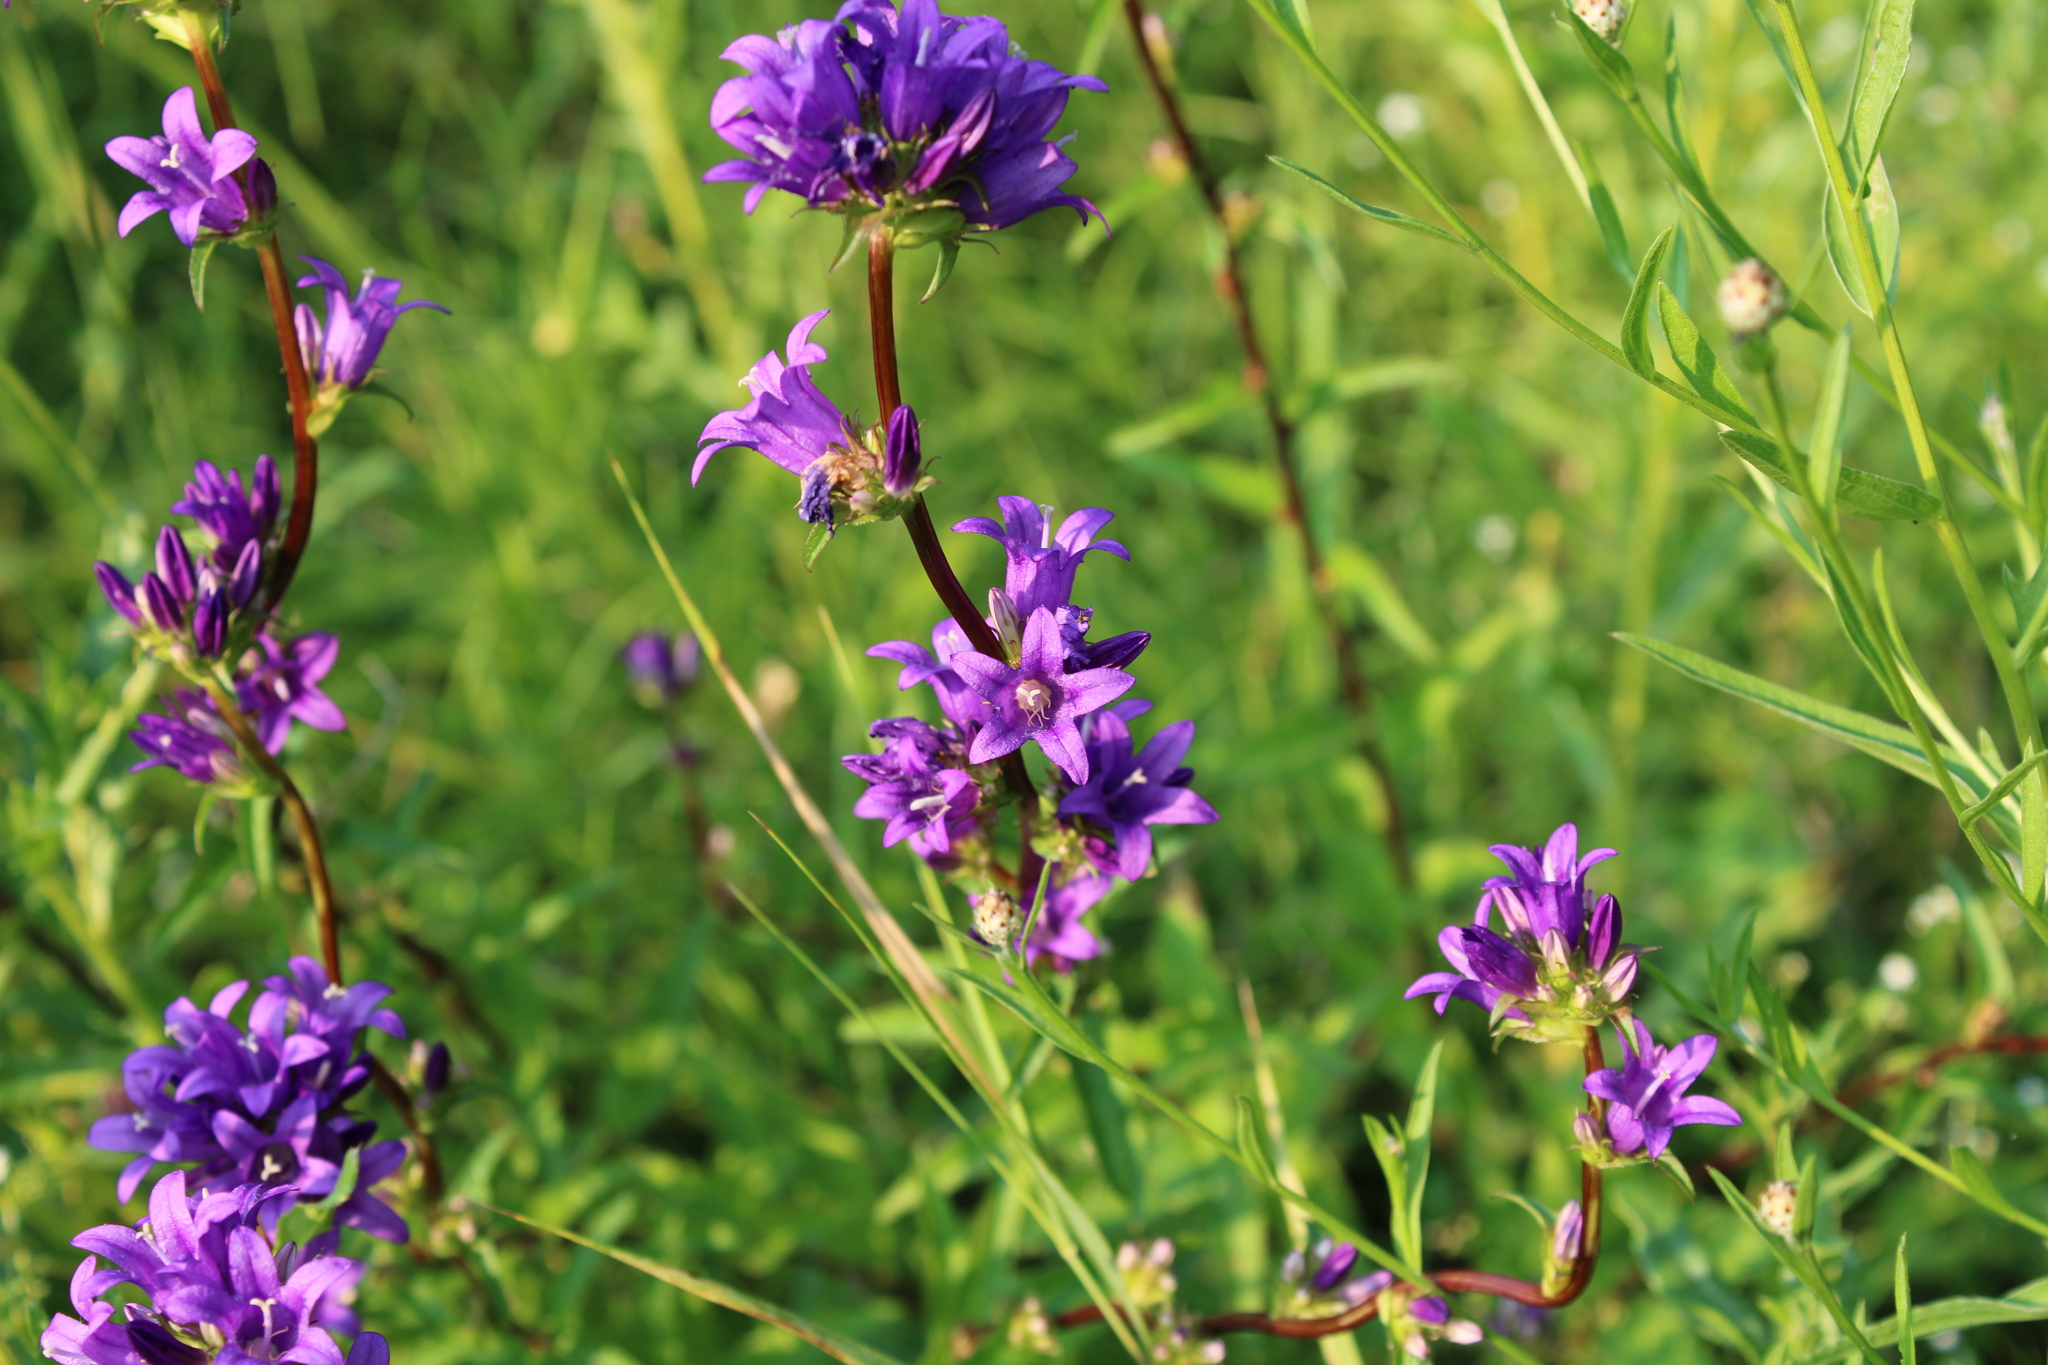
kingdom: Plantae
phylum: Tracheophyta
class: Magnoliopsida
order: Asterales
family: Campanulaceae
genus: Campanula
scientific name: Campanula glomerata
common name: Clustered bellflower
